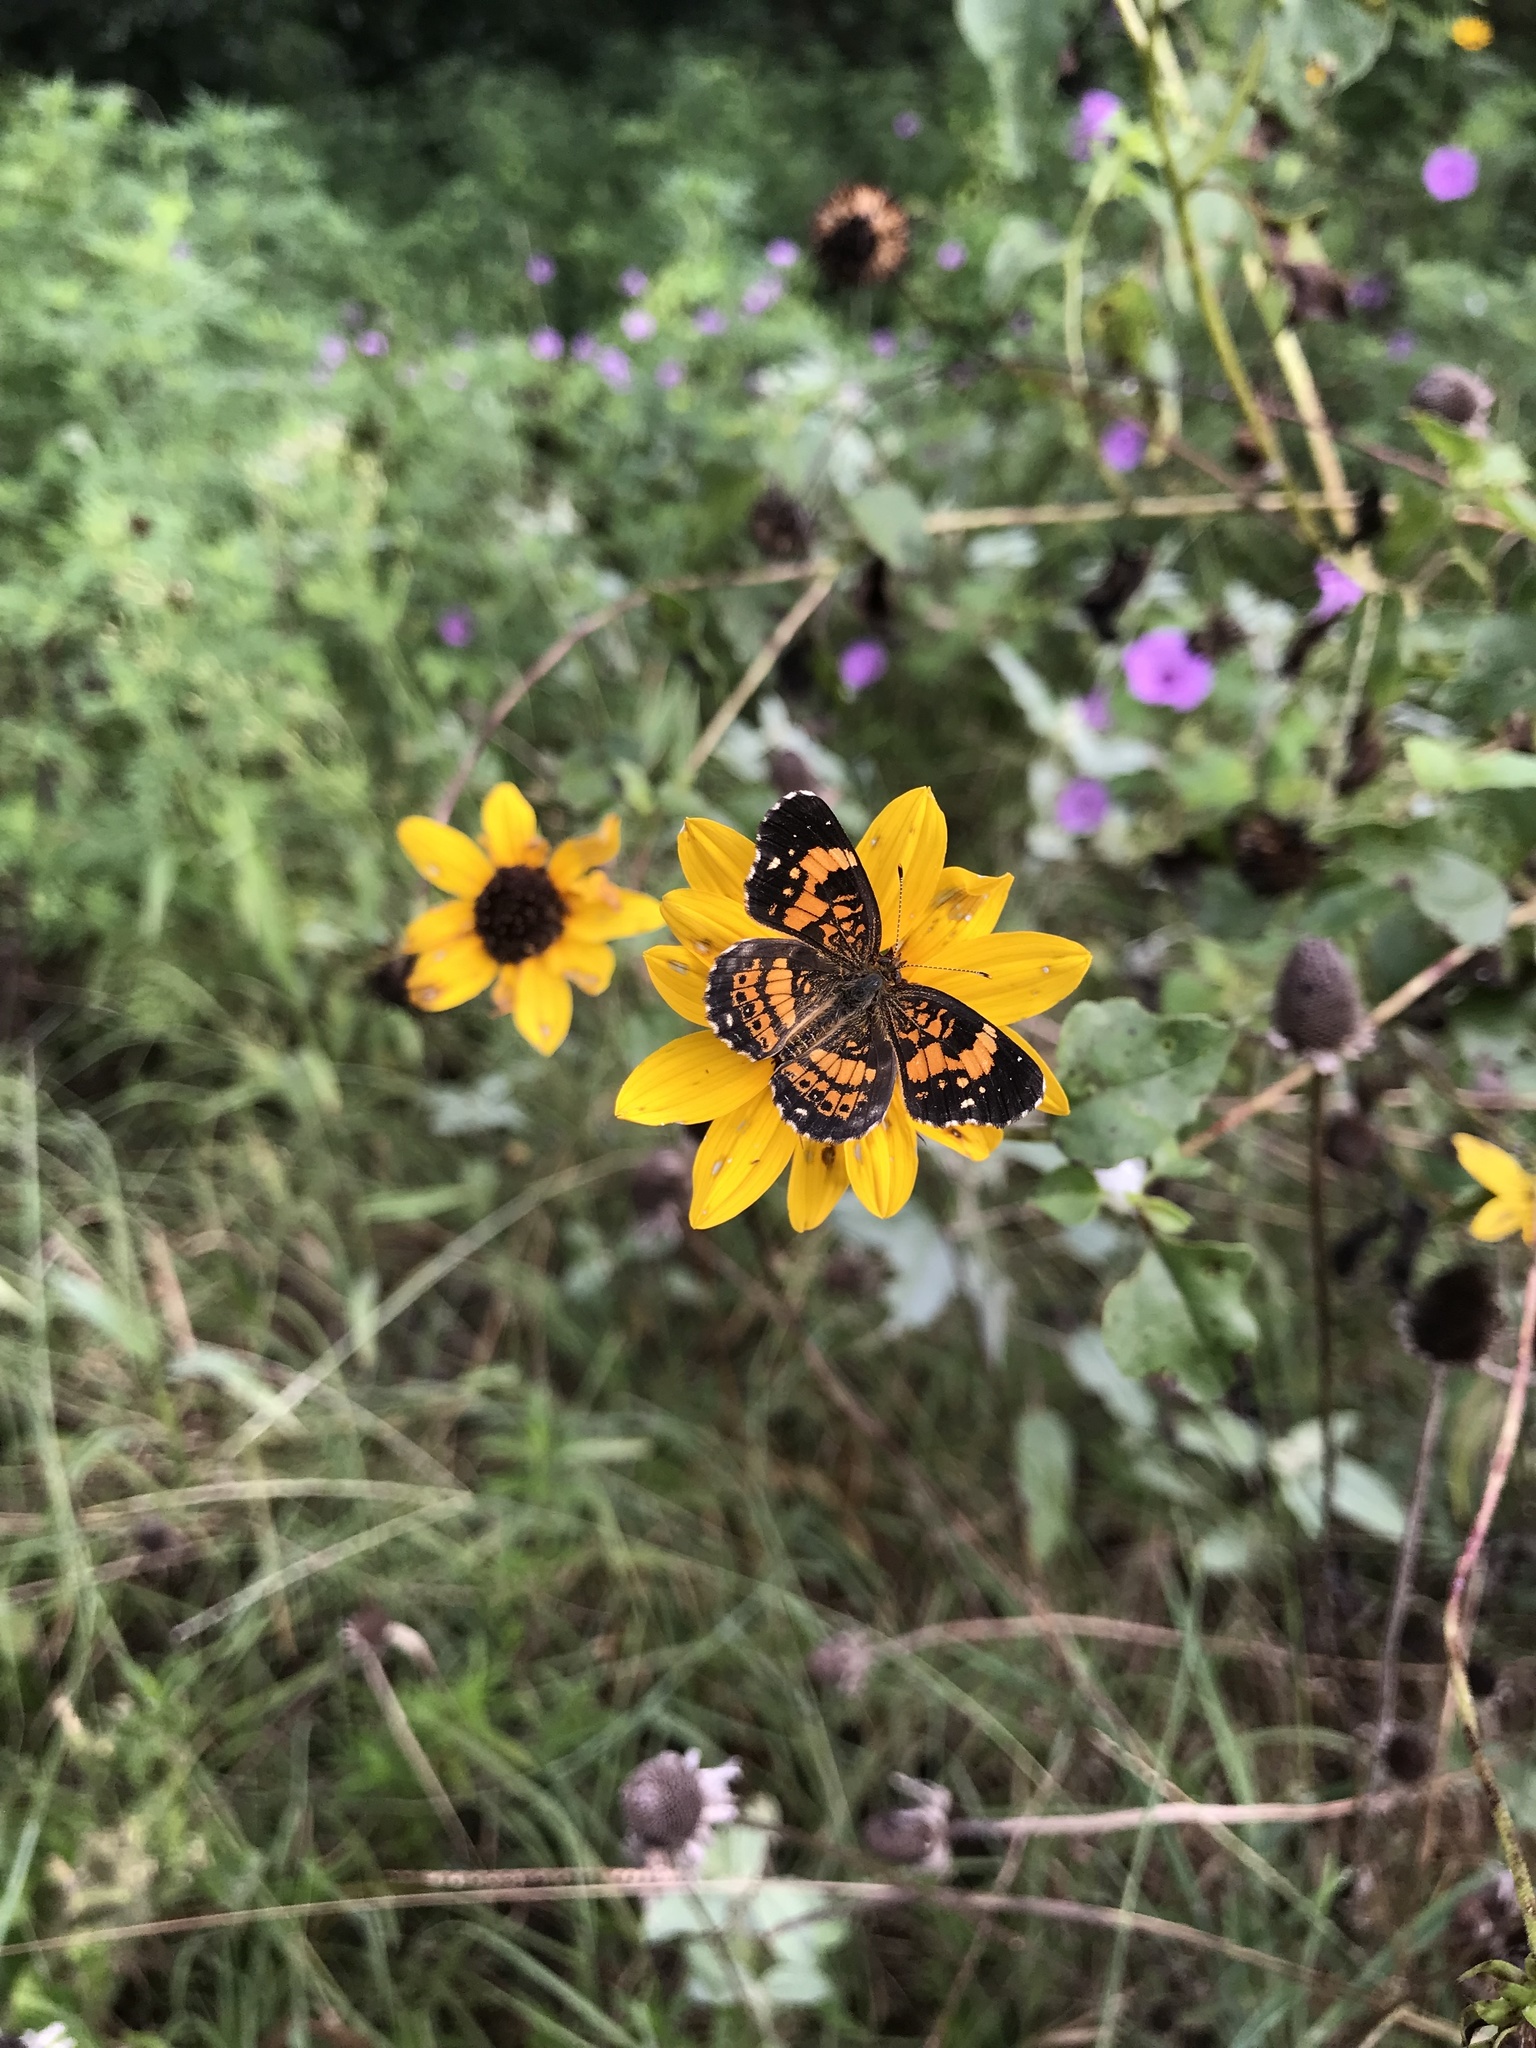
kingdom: Animalia
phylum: Arthropoda
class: Insecta
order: Lepidoptera
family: Nymphalidae
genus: Chlosyne
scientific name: Chlosyne nycteis
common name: Silvery checkerspot
